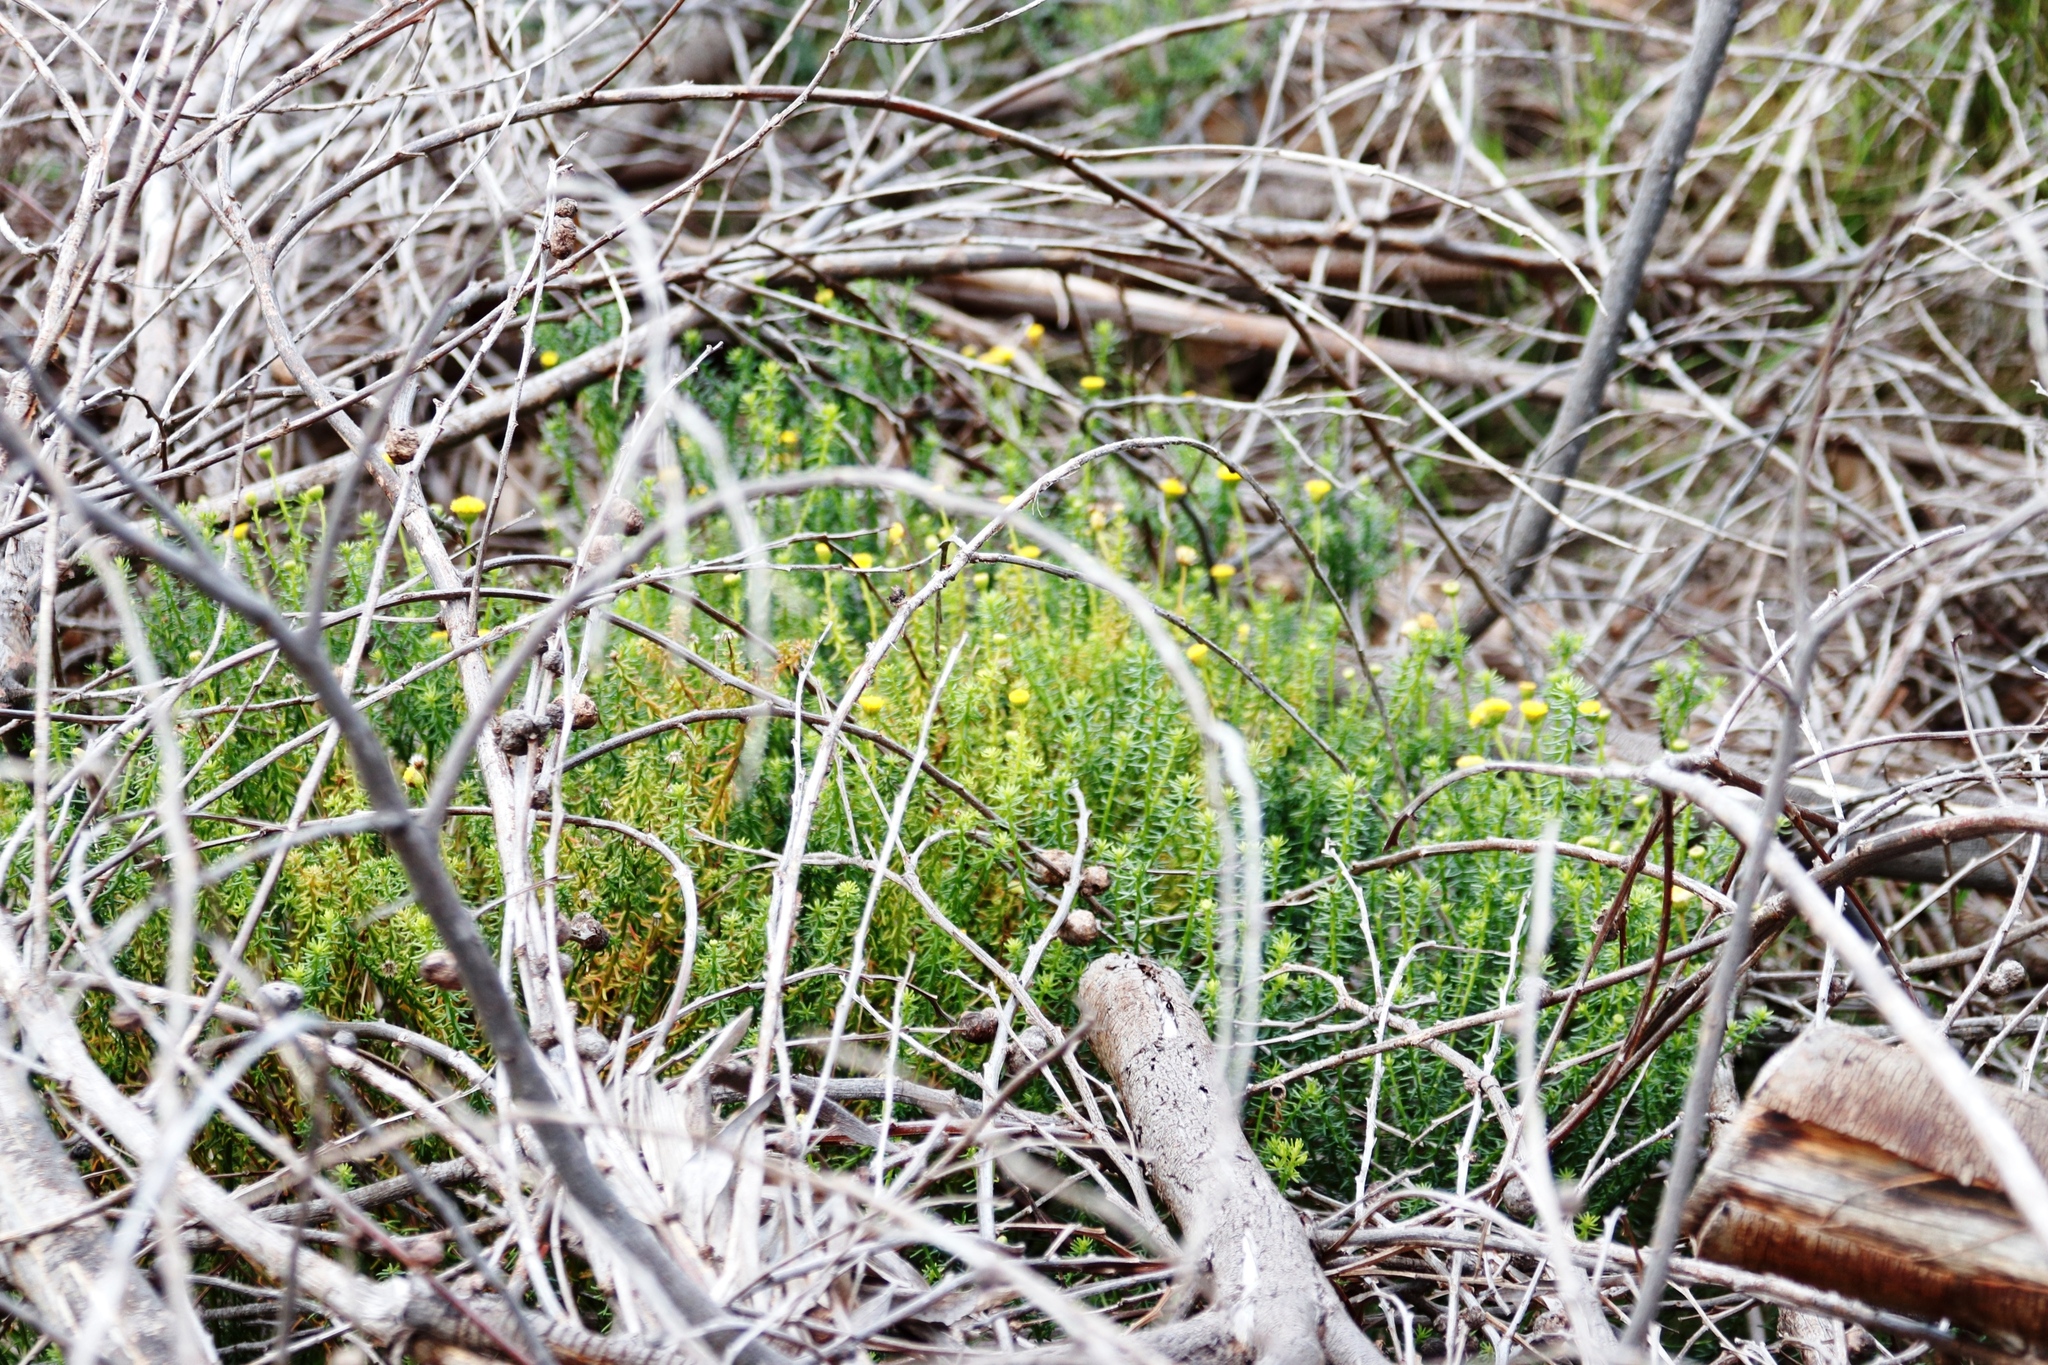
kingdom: Plantae
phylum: Tracheophyta
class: Magnoliopsida
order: Asterales
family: Asteraceae
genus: Chrysocoma
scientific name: Chrysocoma cernua
